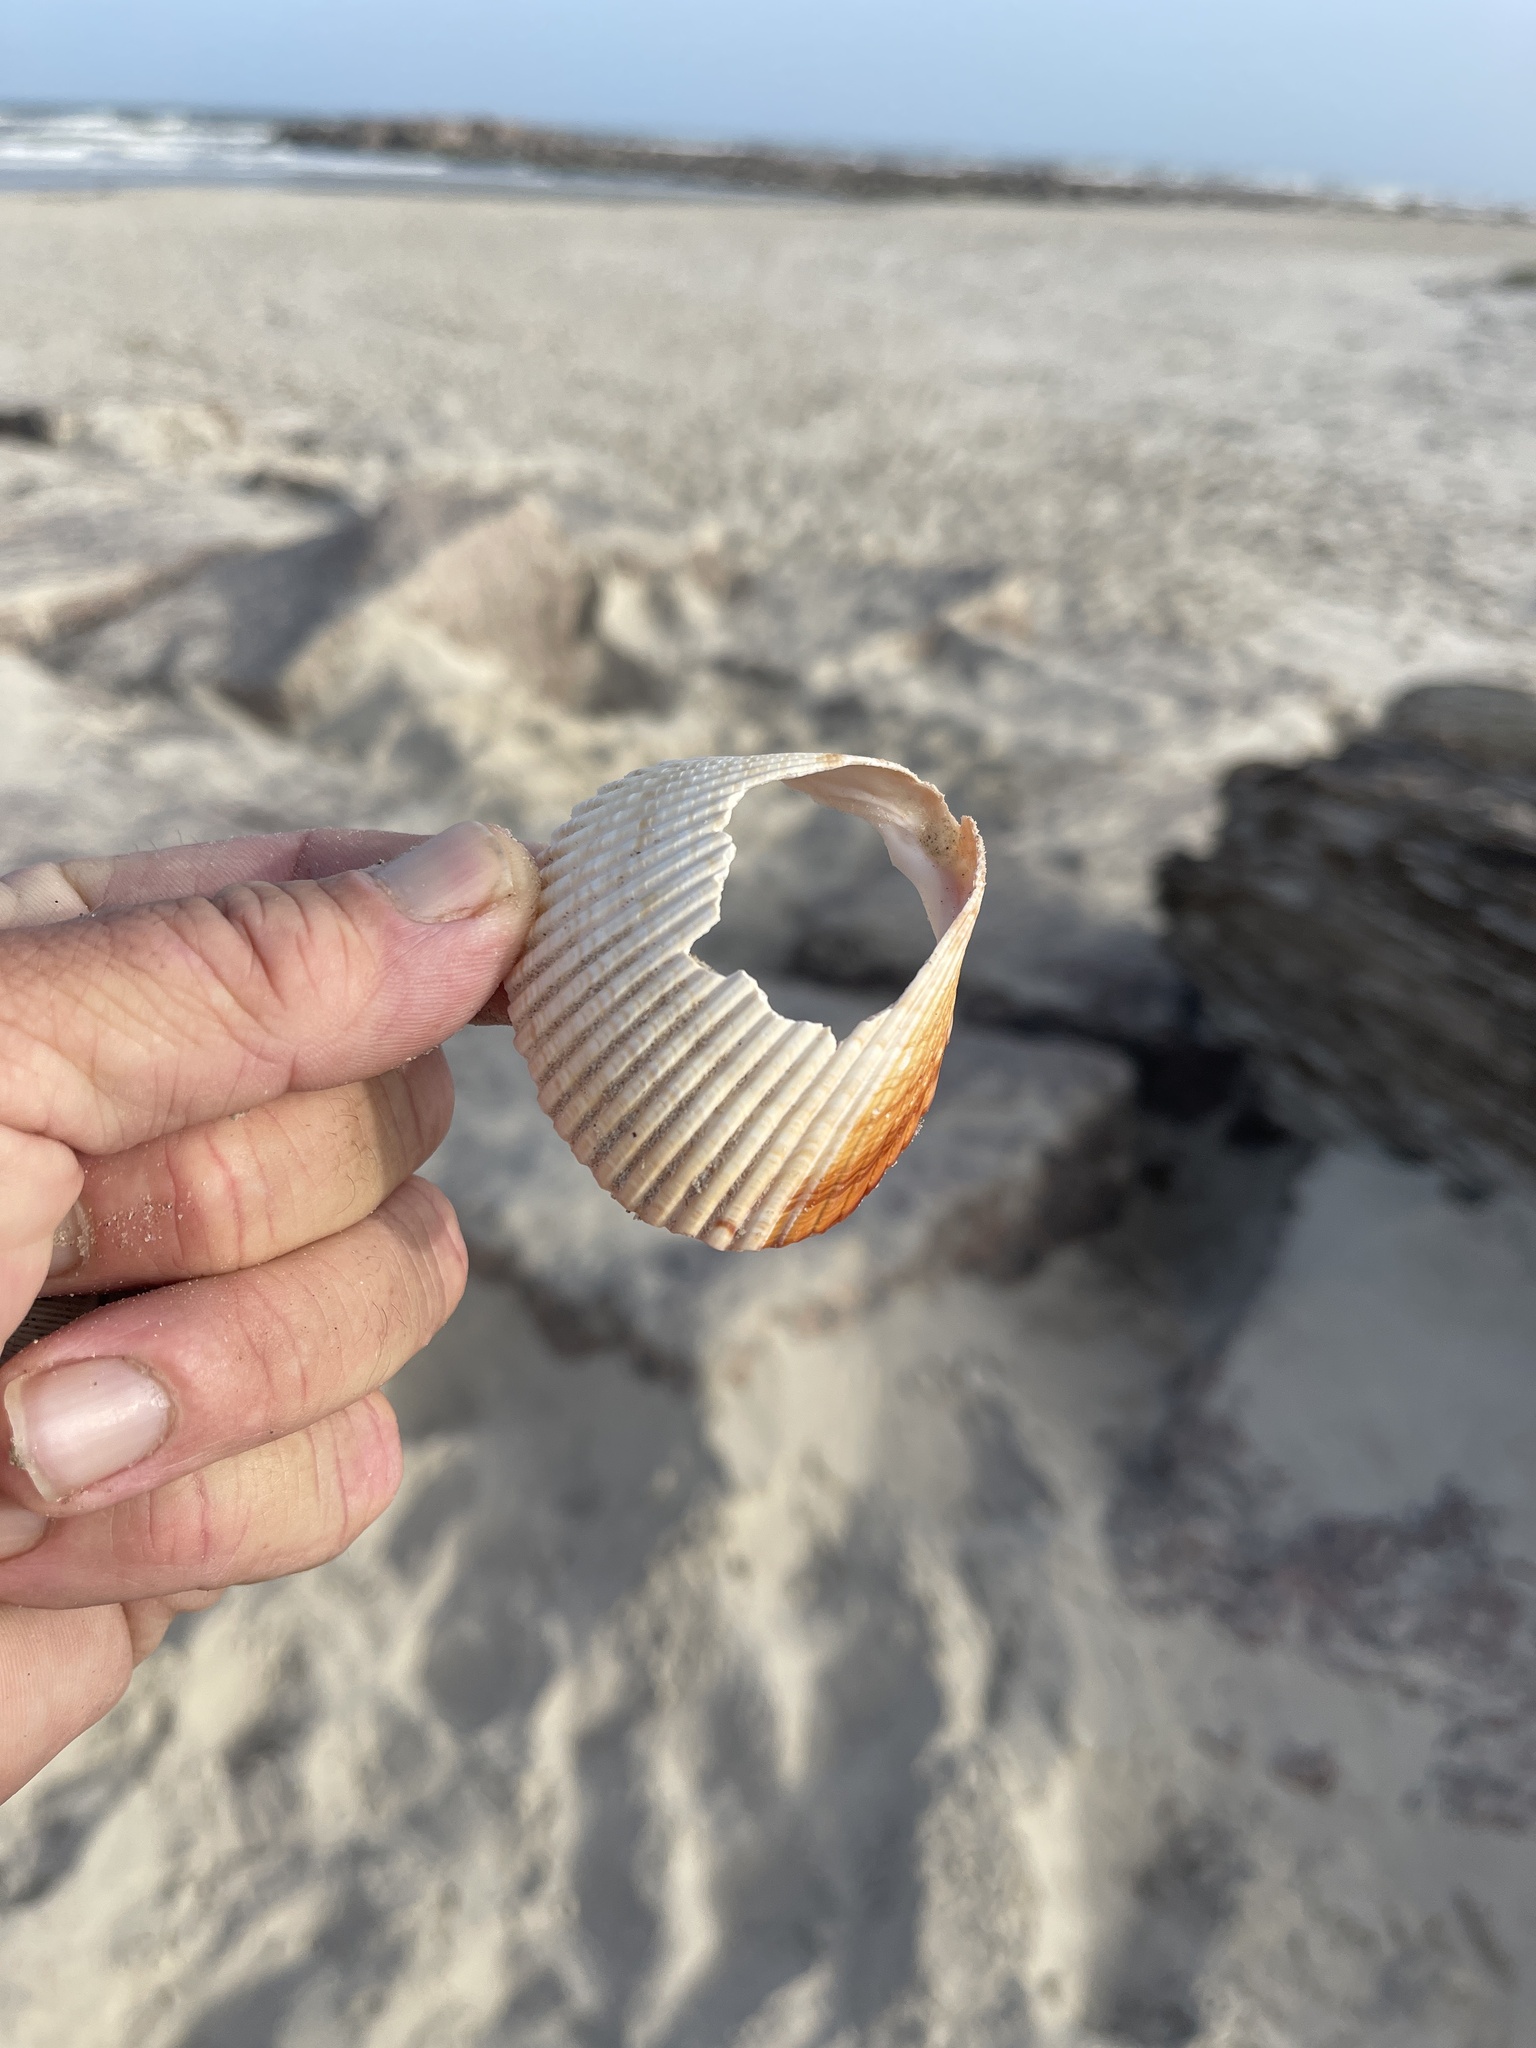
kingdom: Animalia
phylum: Mollusca
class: Bivalvia
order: Cardiida
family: Cardiidae
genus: Dinocardium
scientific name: Dinocardium robustum
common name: Atlantic giant cockle
